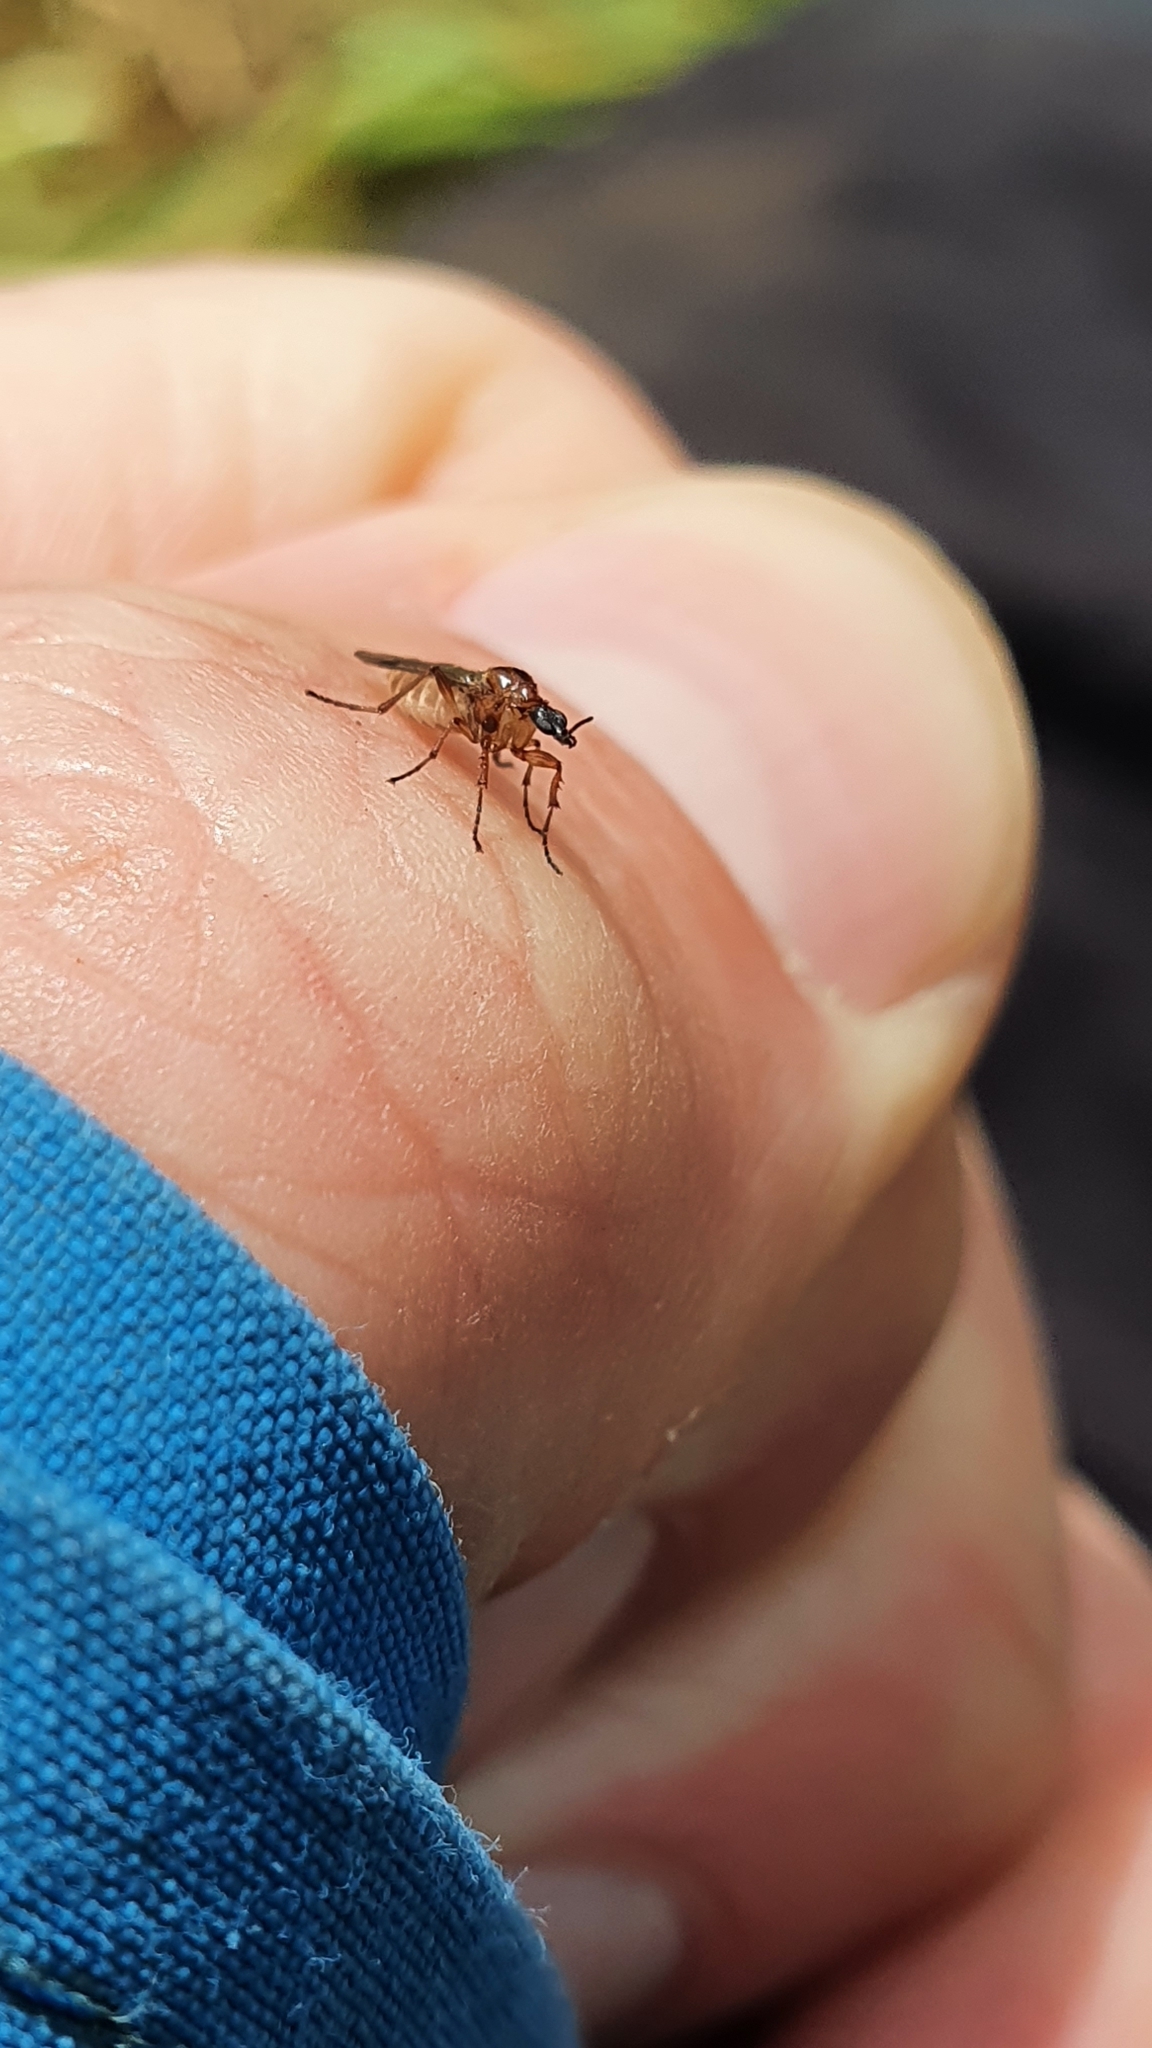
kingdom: Animalia
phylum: Arthropoda
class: Insecta
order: Diptera
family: Bibionidae
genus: Dilophus
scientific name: Dilophus nigrostigma
